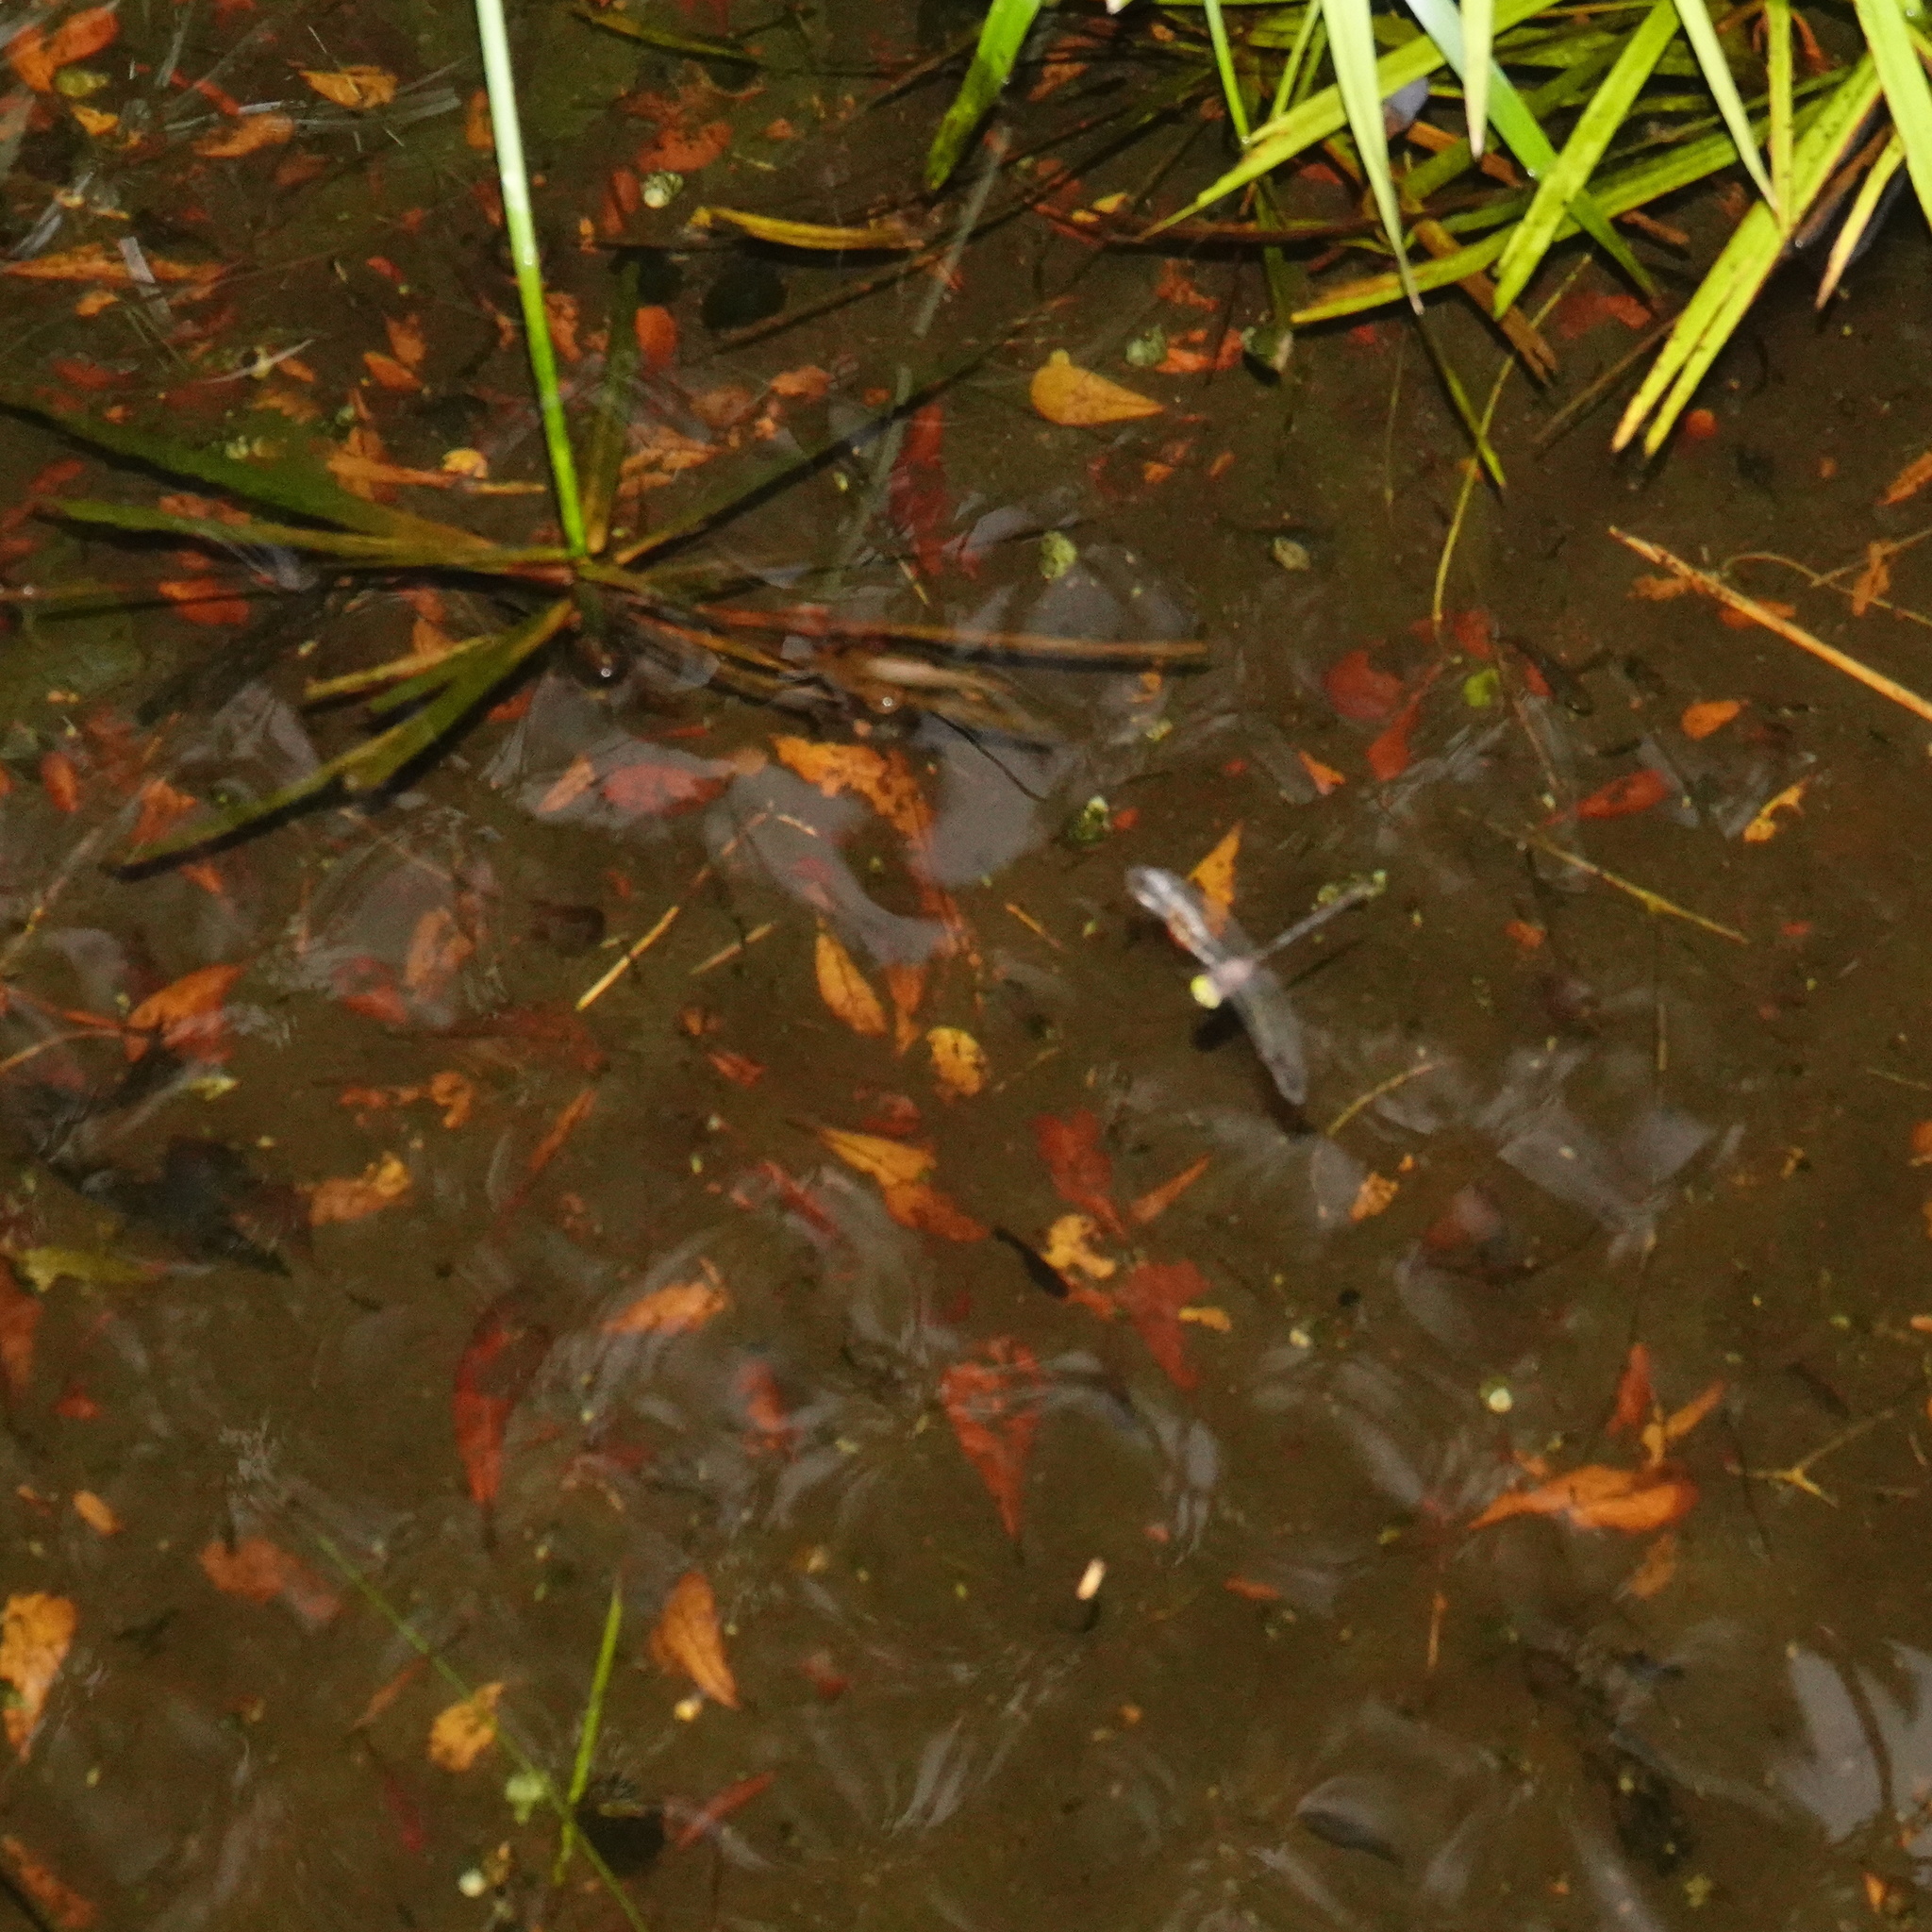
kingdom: Animalia
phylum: Arthropoda
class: Insecta
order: Odonata
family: Libellulidae
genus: Zyxomma
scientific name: Zyxomma petiolatum
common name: Dingy dusk-darter
